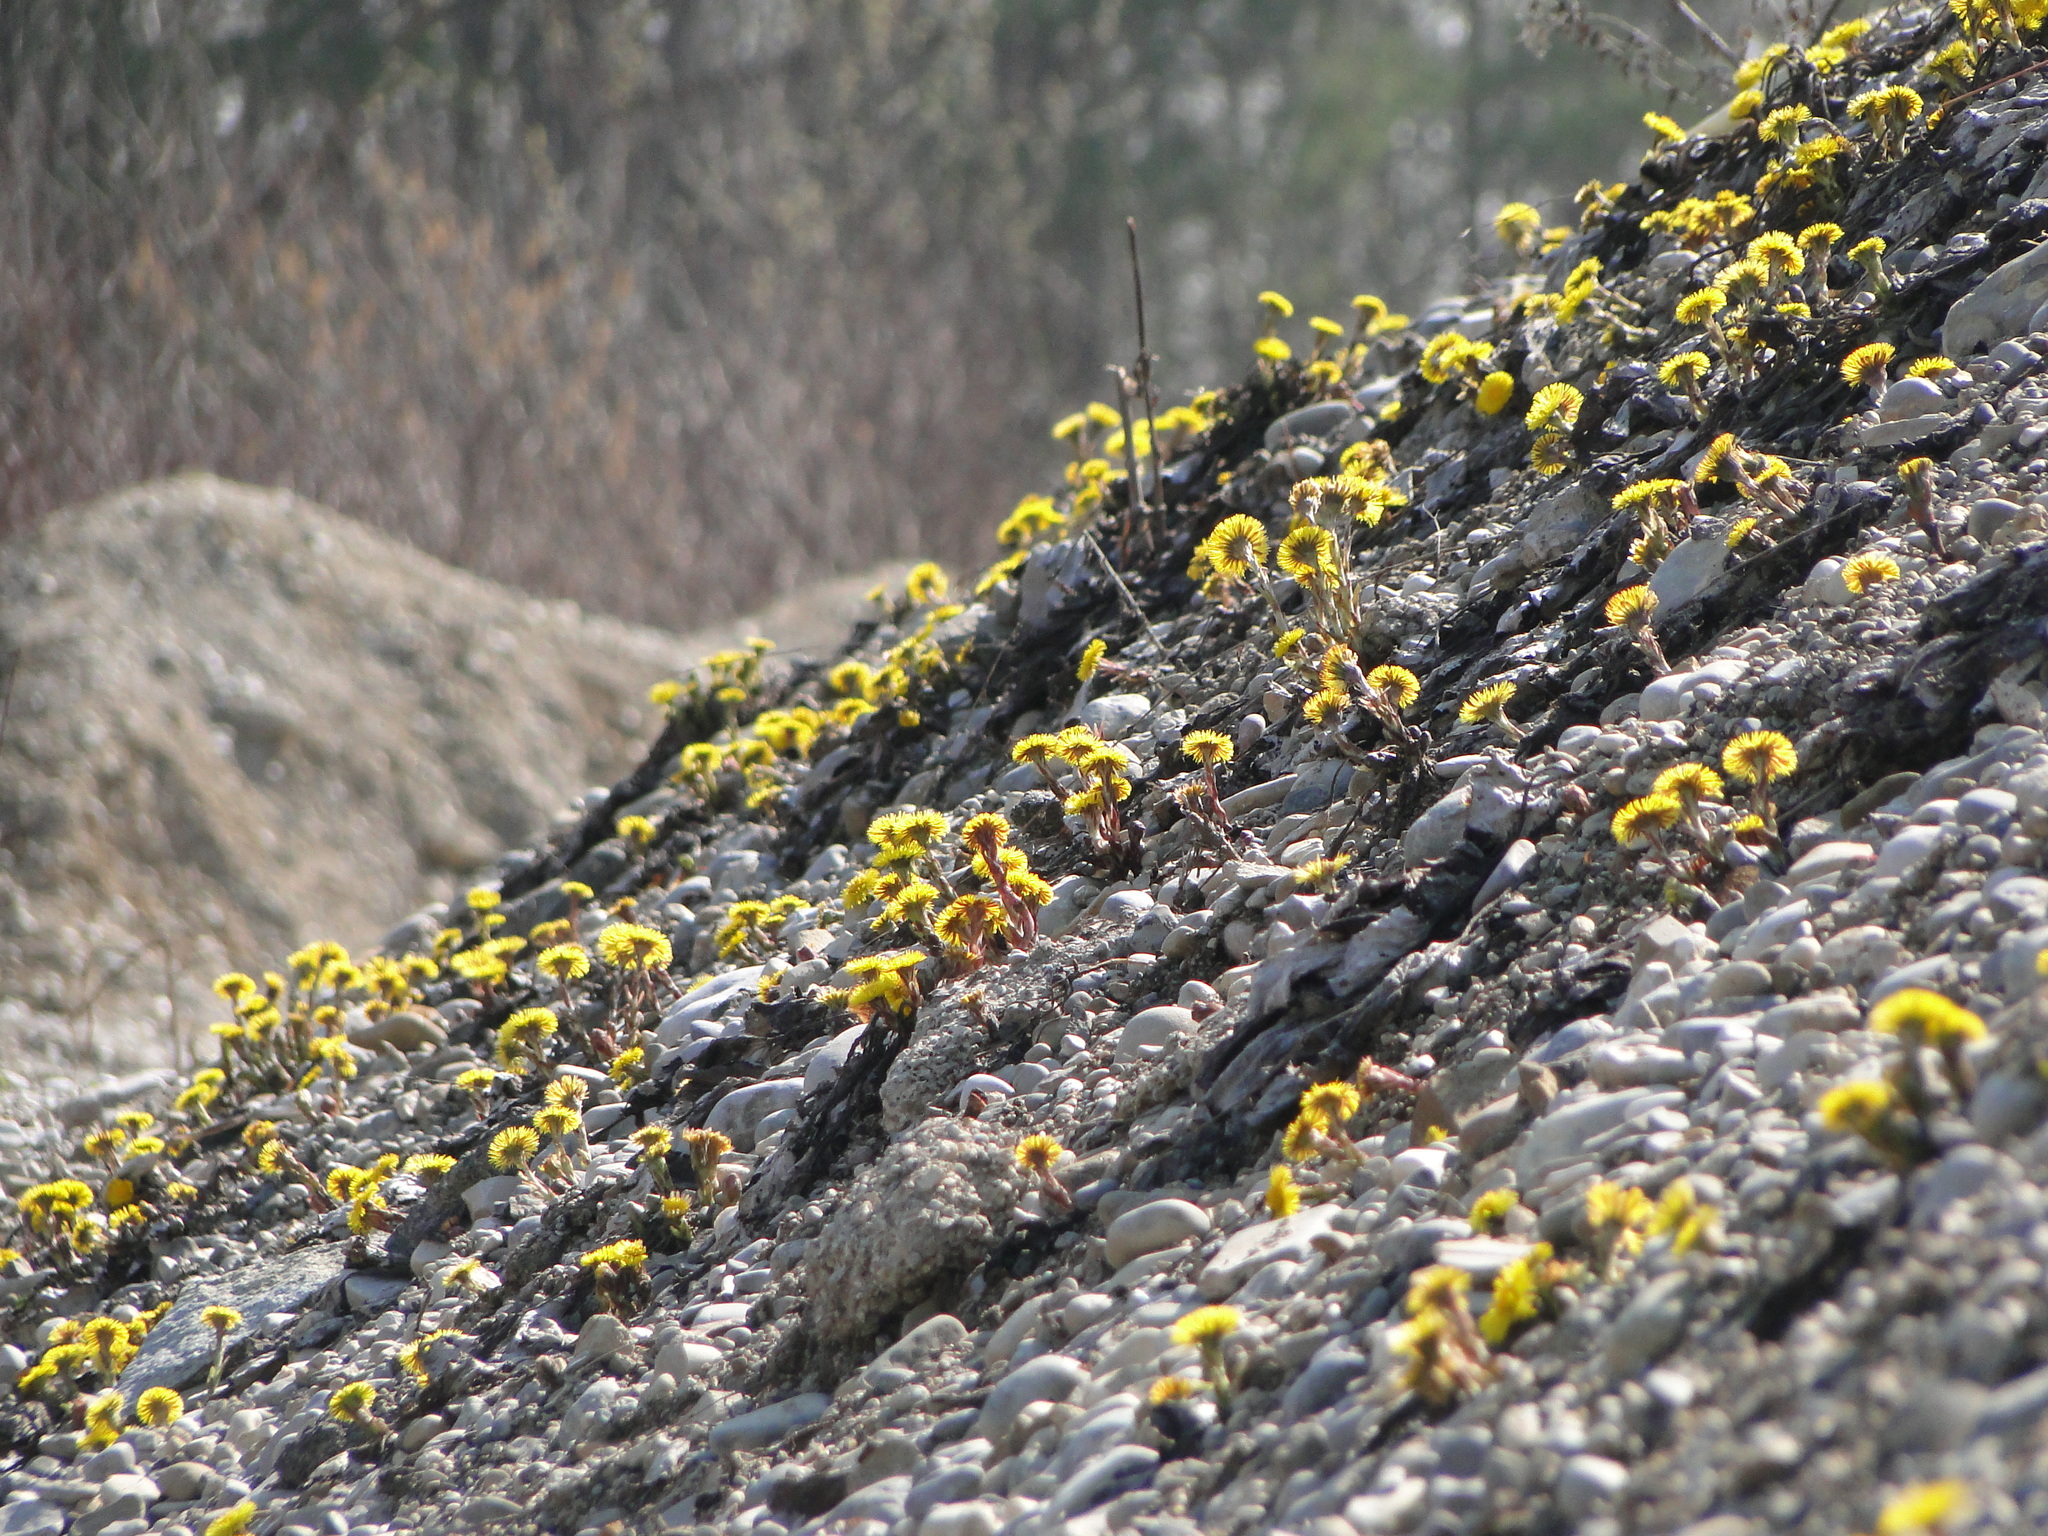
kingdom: Plantae
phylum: Tracheophyta
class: Magnoliopsida
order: Asterales
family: Asteraceae
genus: Tussilago
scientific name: Tussilago farfara
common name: Coltsfoot
